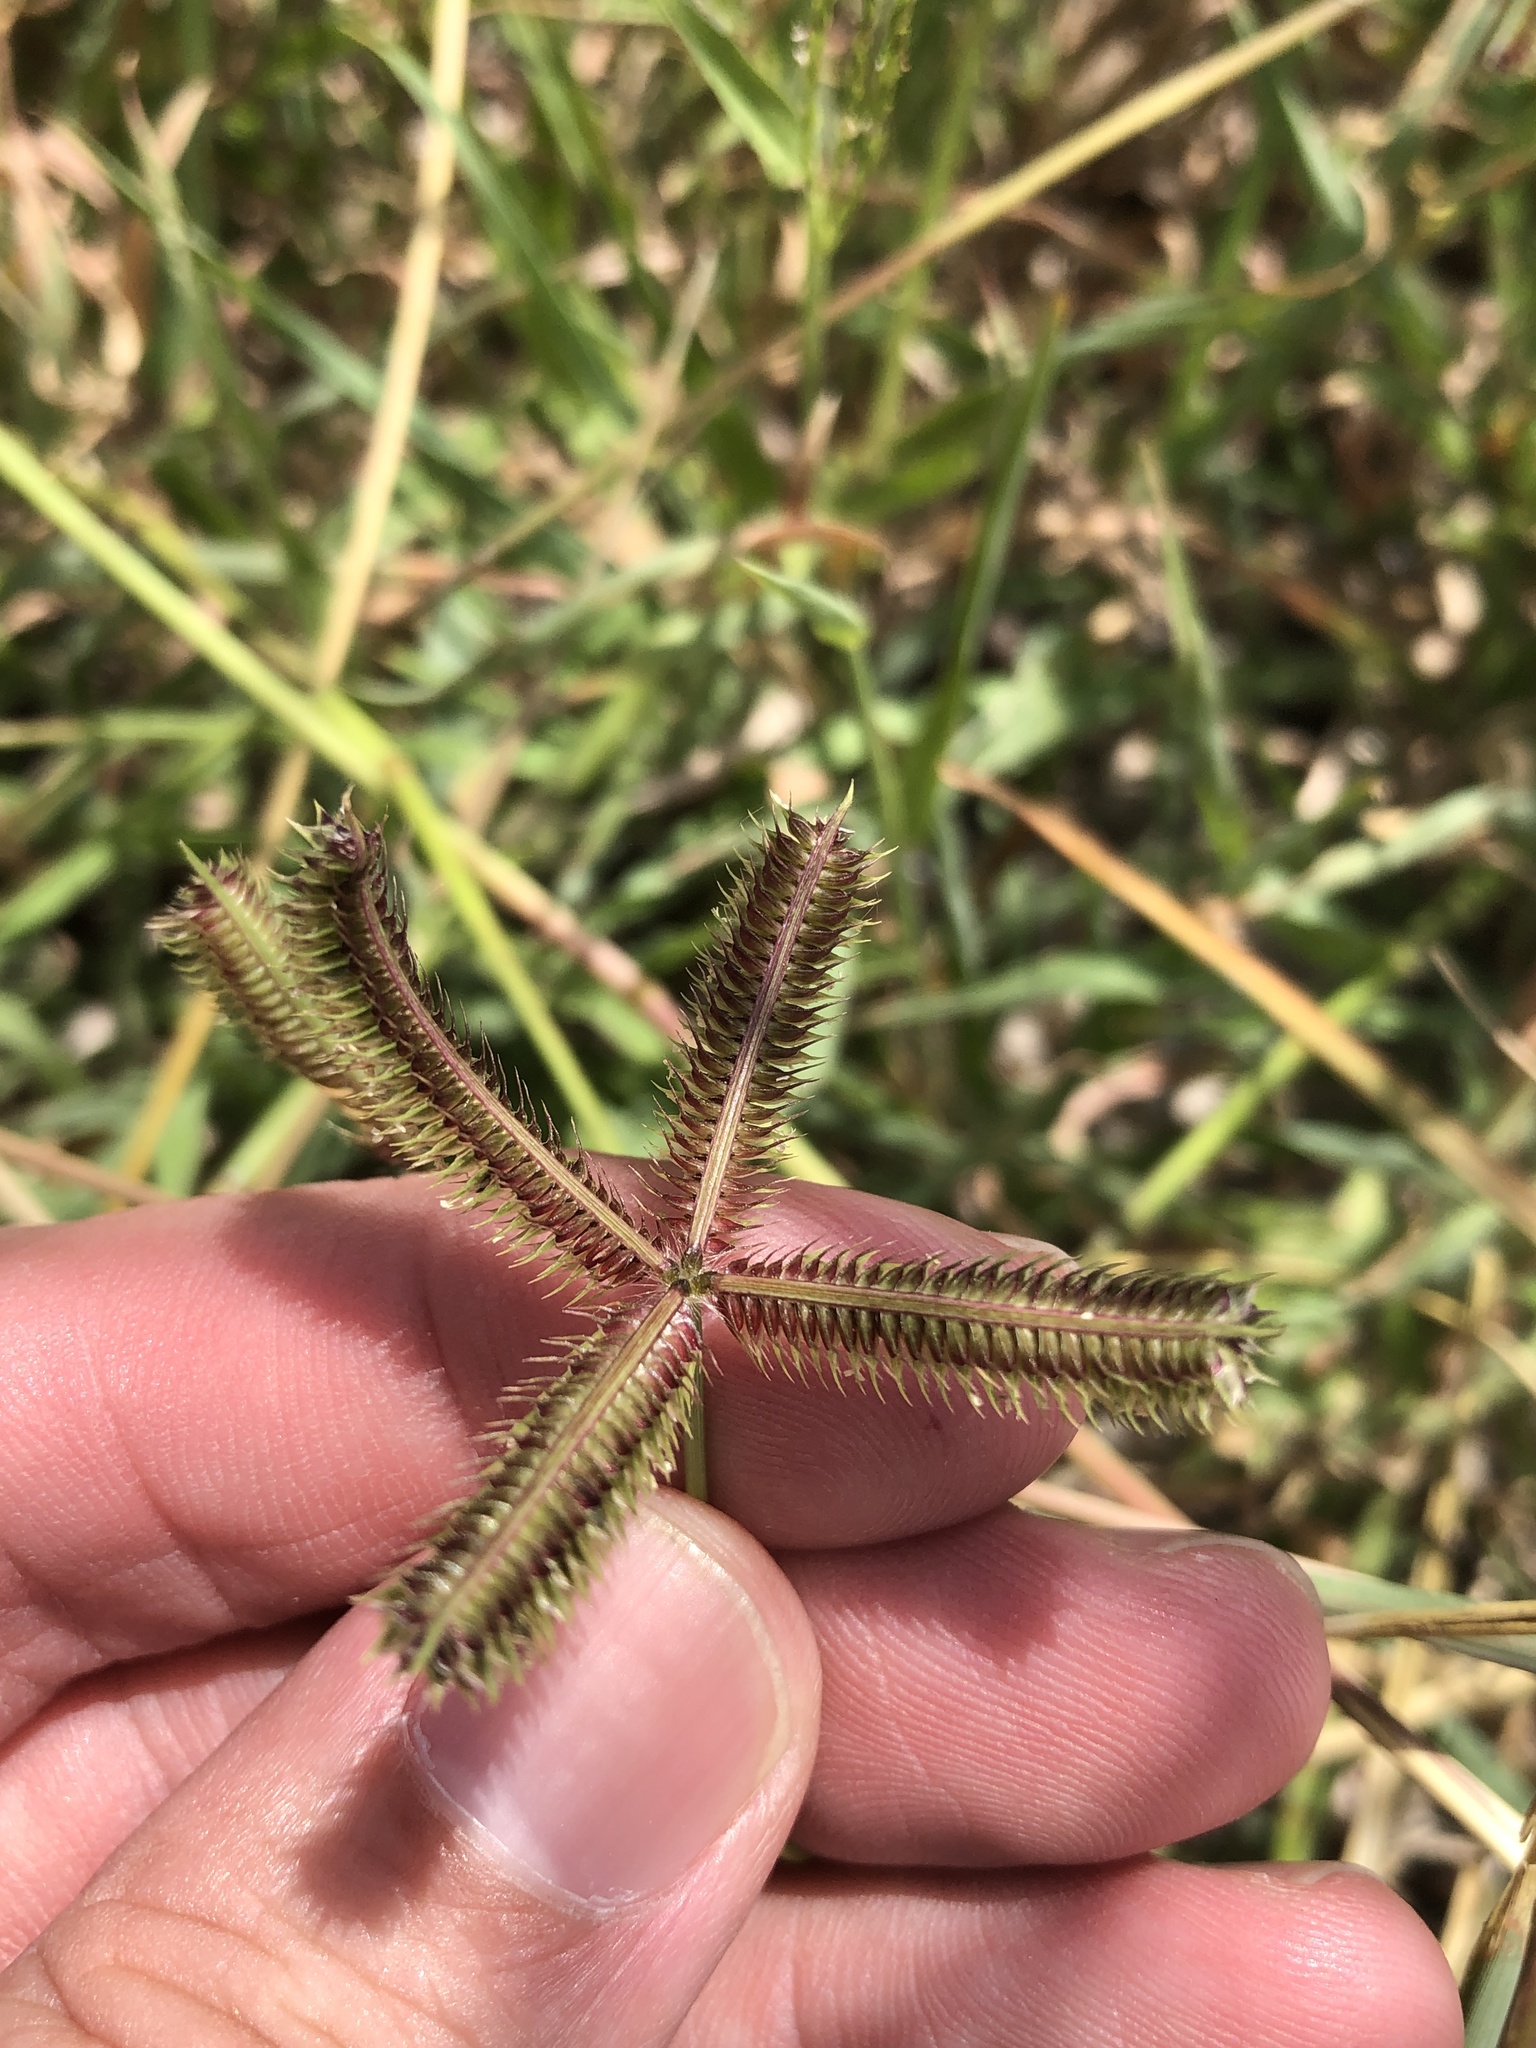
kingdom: Plantae
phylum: Tracheophyta
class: Liliopsida
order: Poales
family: Poaceae
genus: Dactyloctenium
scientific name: Dactyloctenium aegyptium
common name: Egyptian grass
